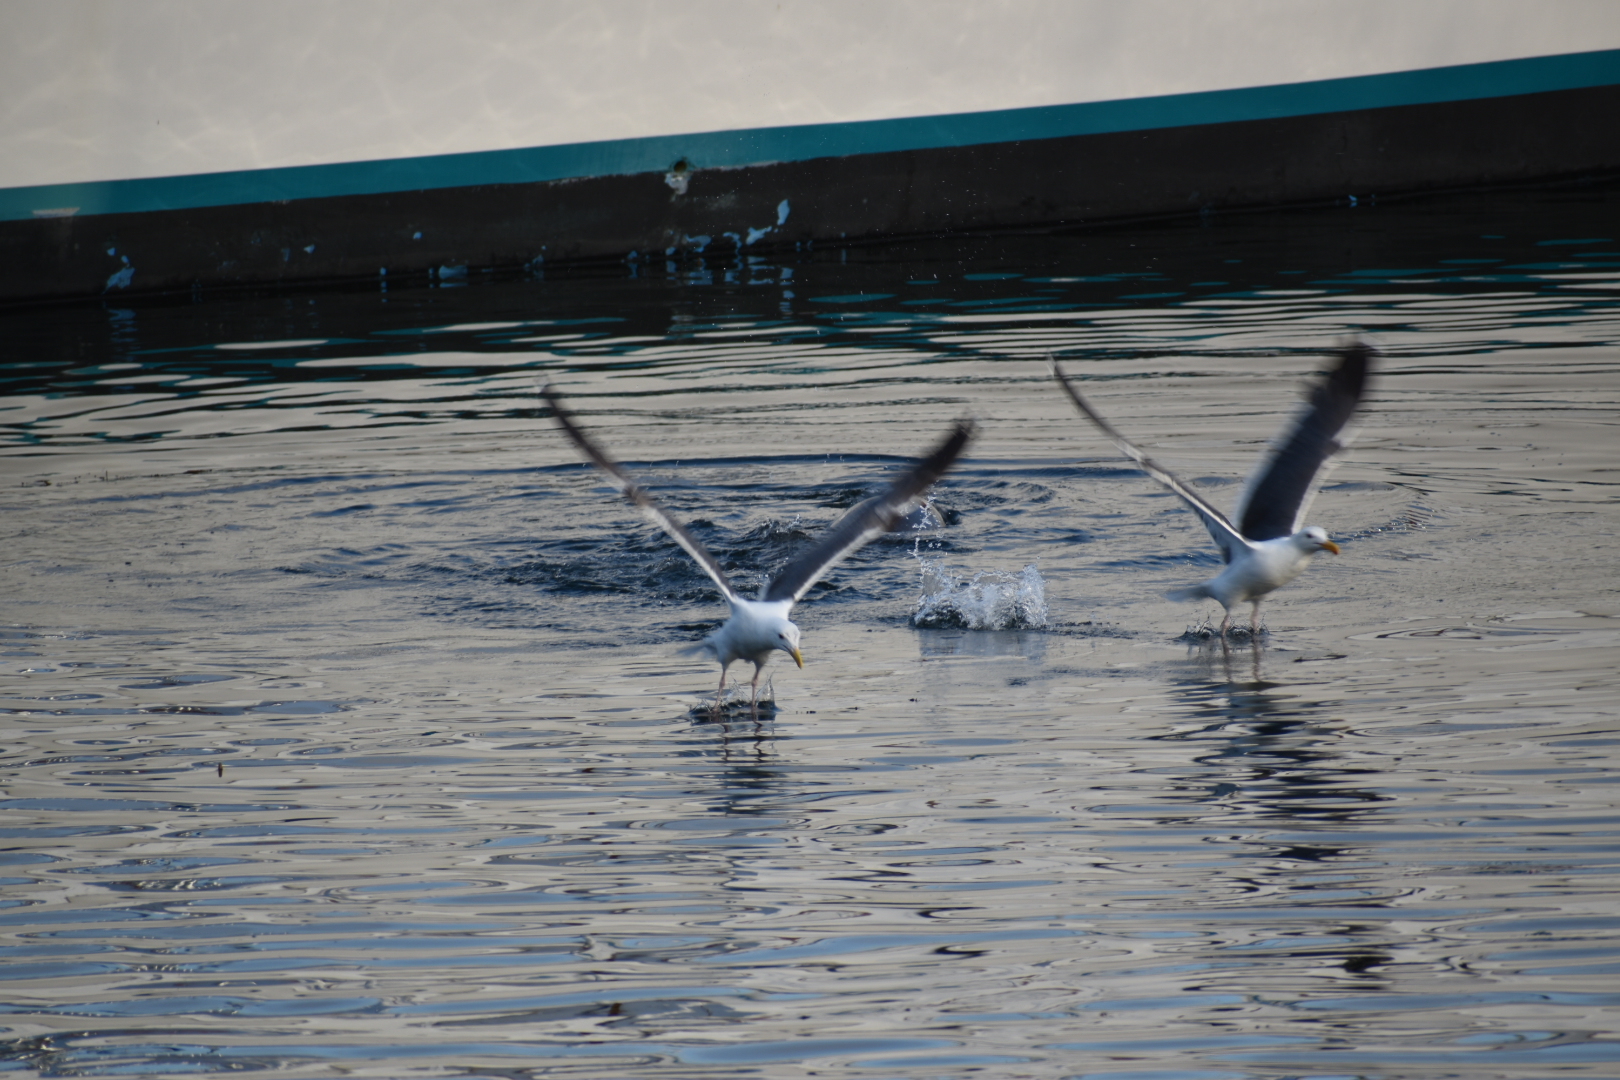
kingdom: Animalia
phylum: Chordata
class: Aves
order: Charadriiformes
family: Laridae
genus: Larus
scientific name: Larus occidentalis
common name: Western gull
